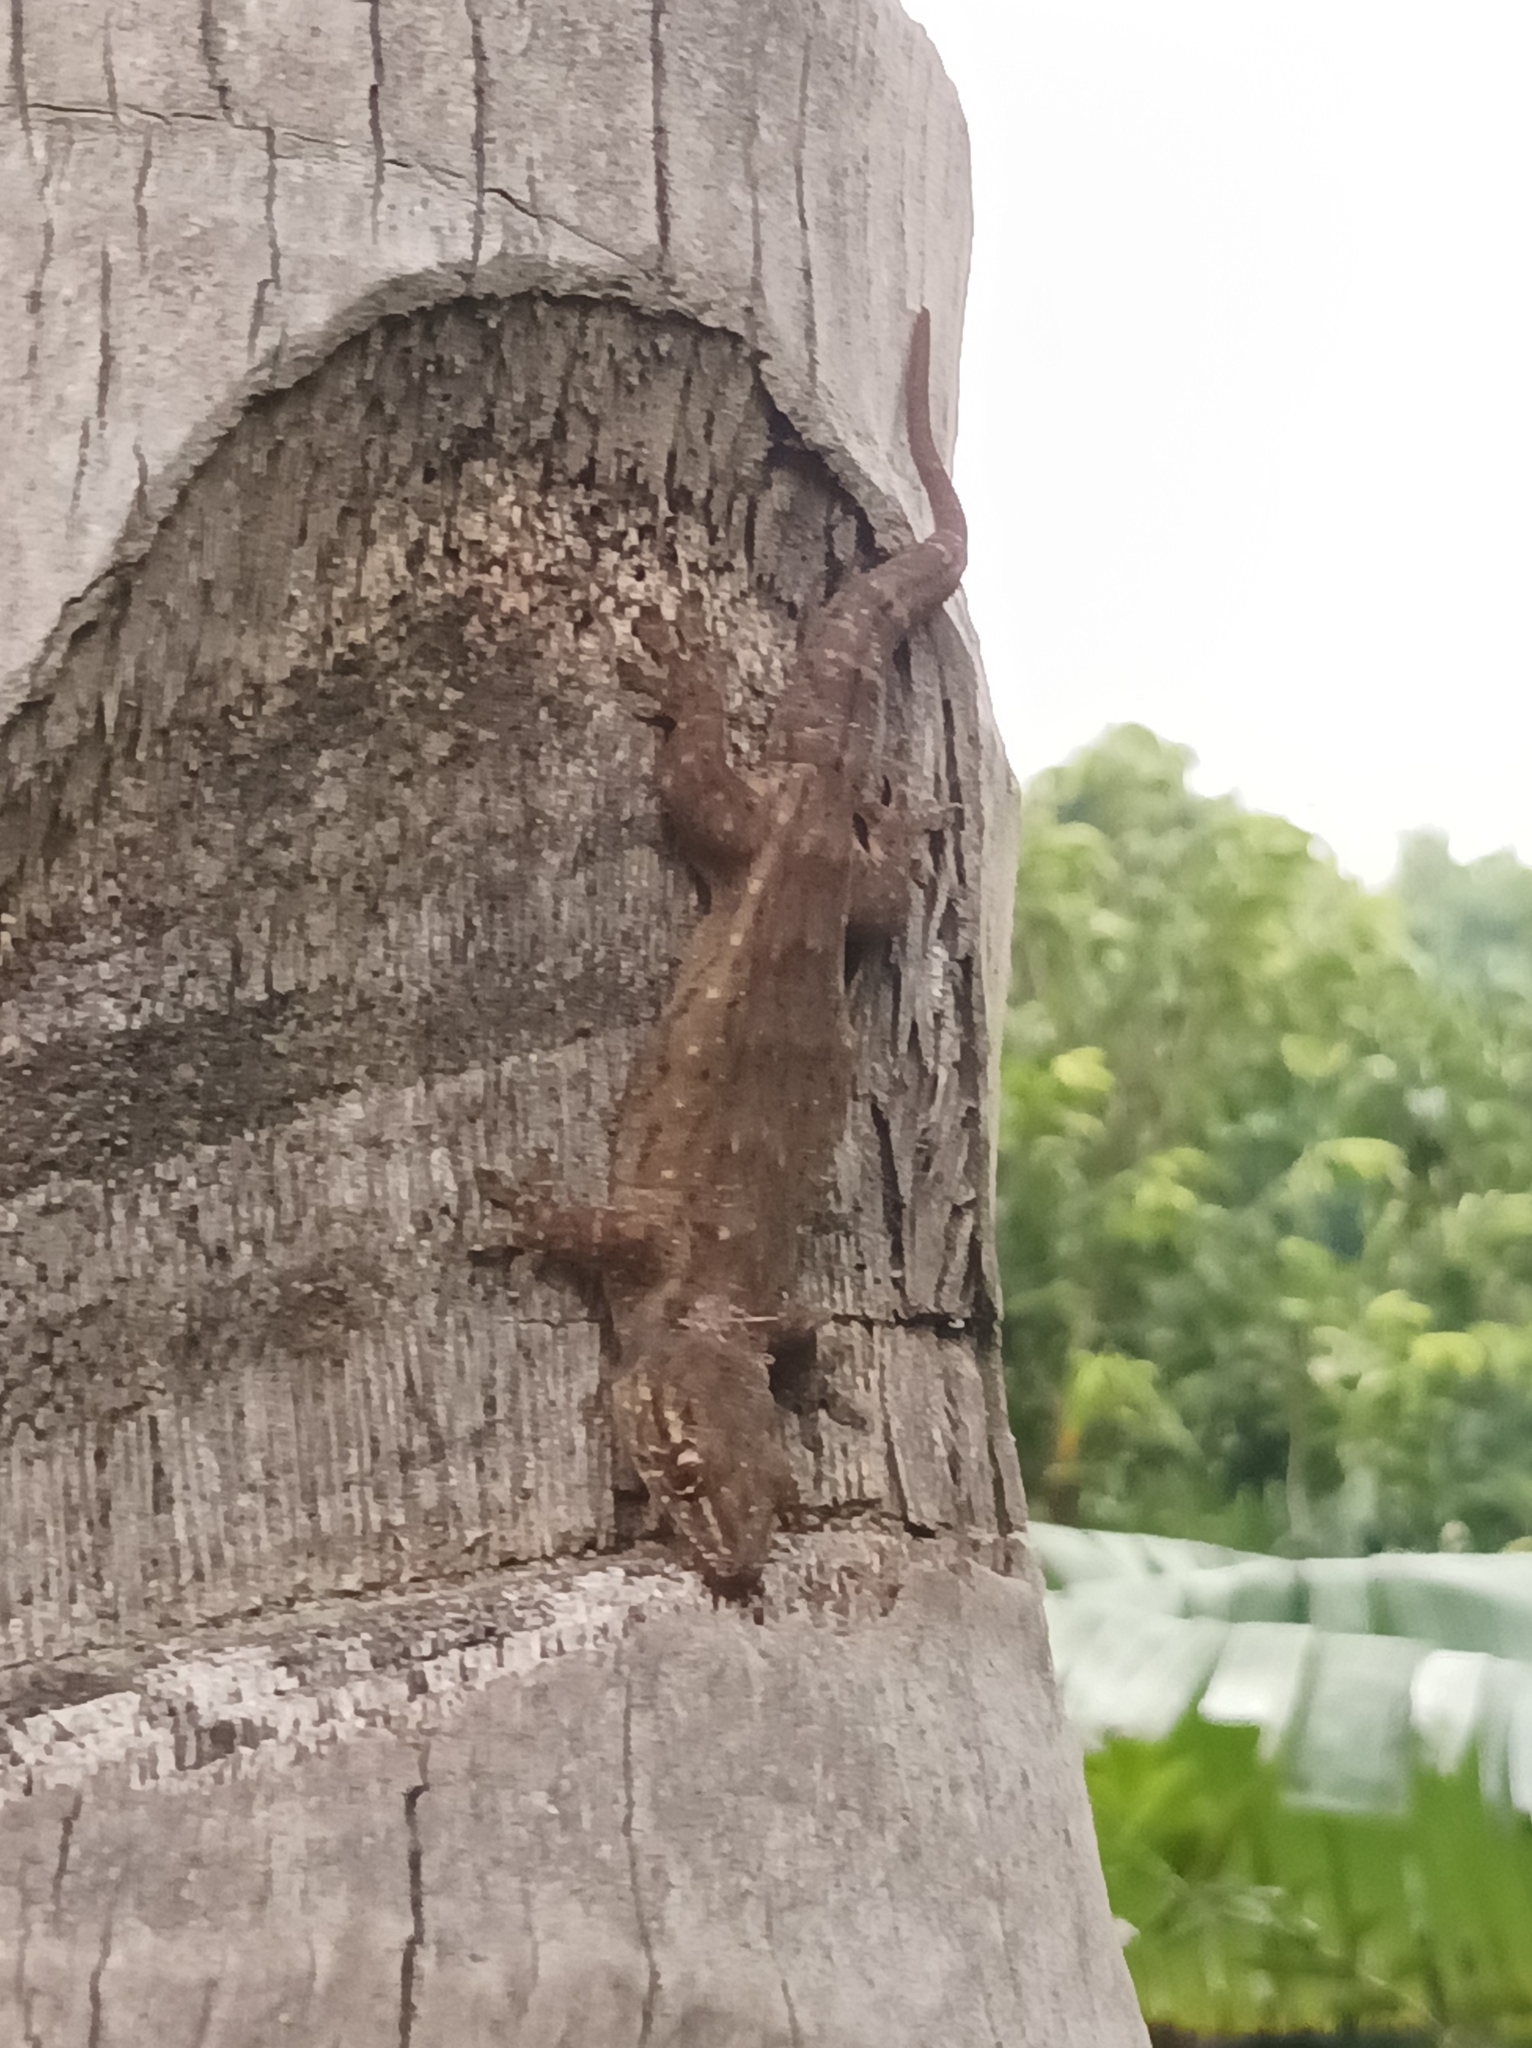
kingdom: Animalia
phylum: Chordata
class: Squamata
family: Gekkonidae
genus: Gehyra
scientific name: Gehyra oceanica
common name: Pacific dtella
